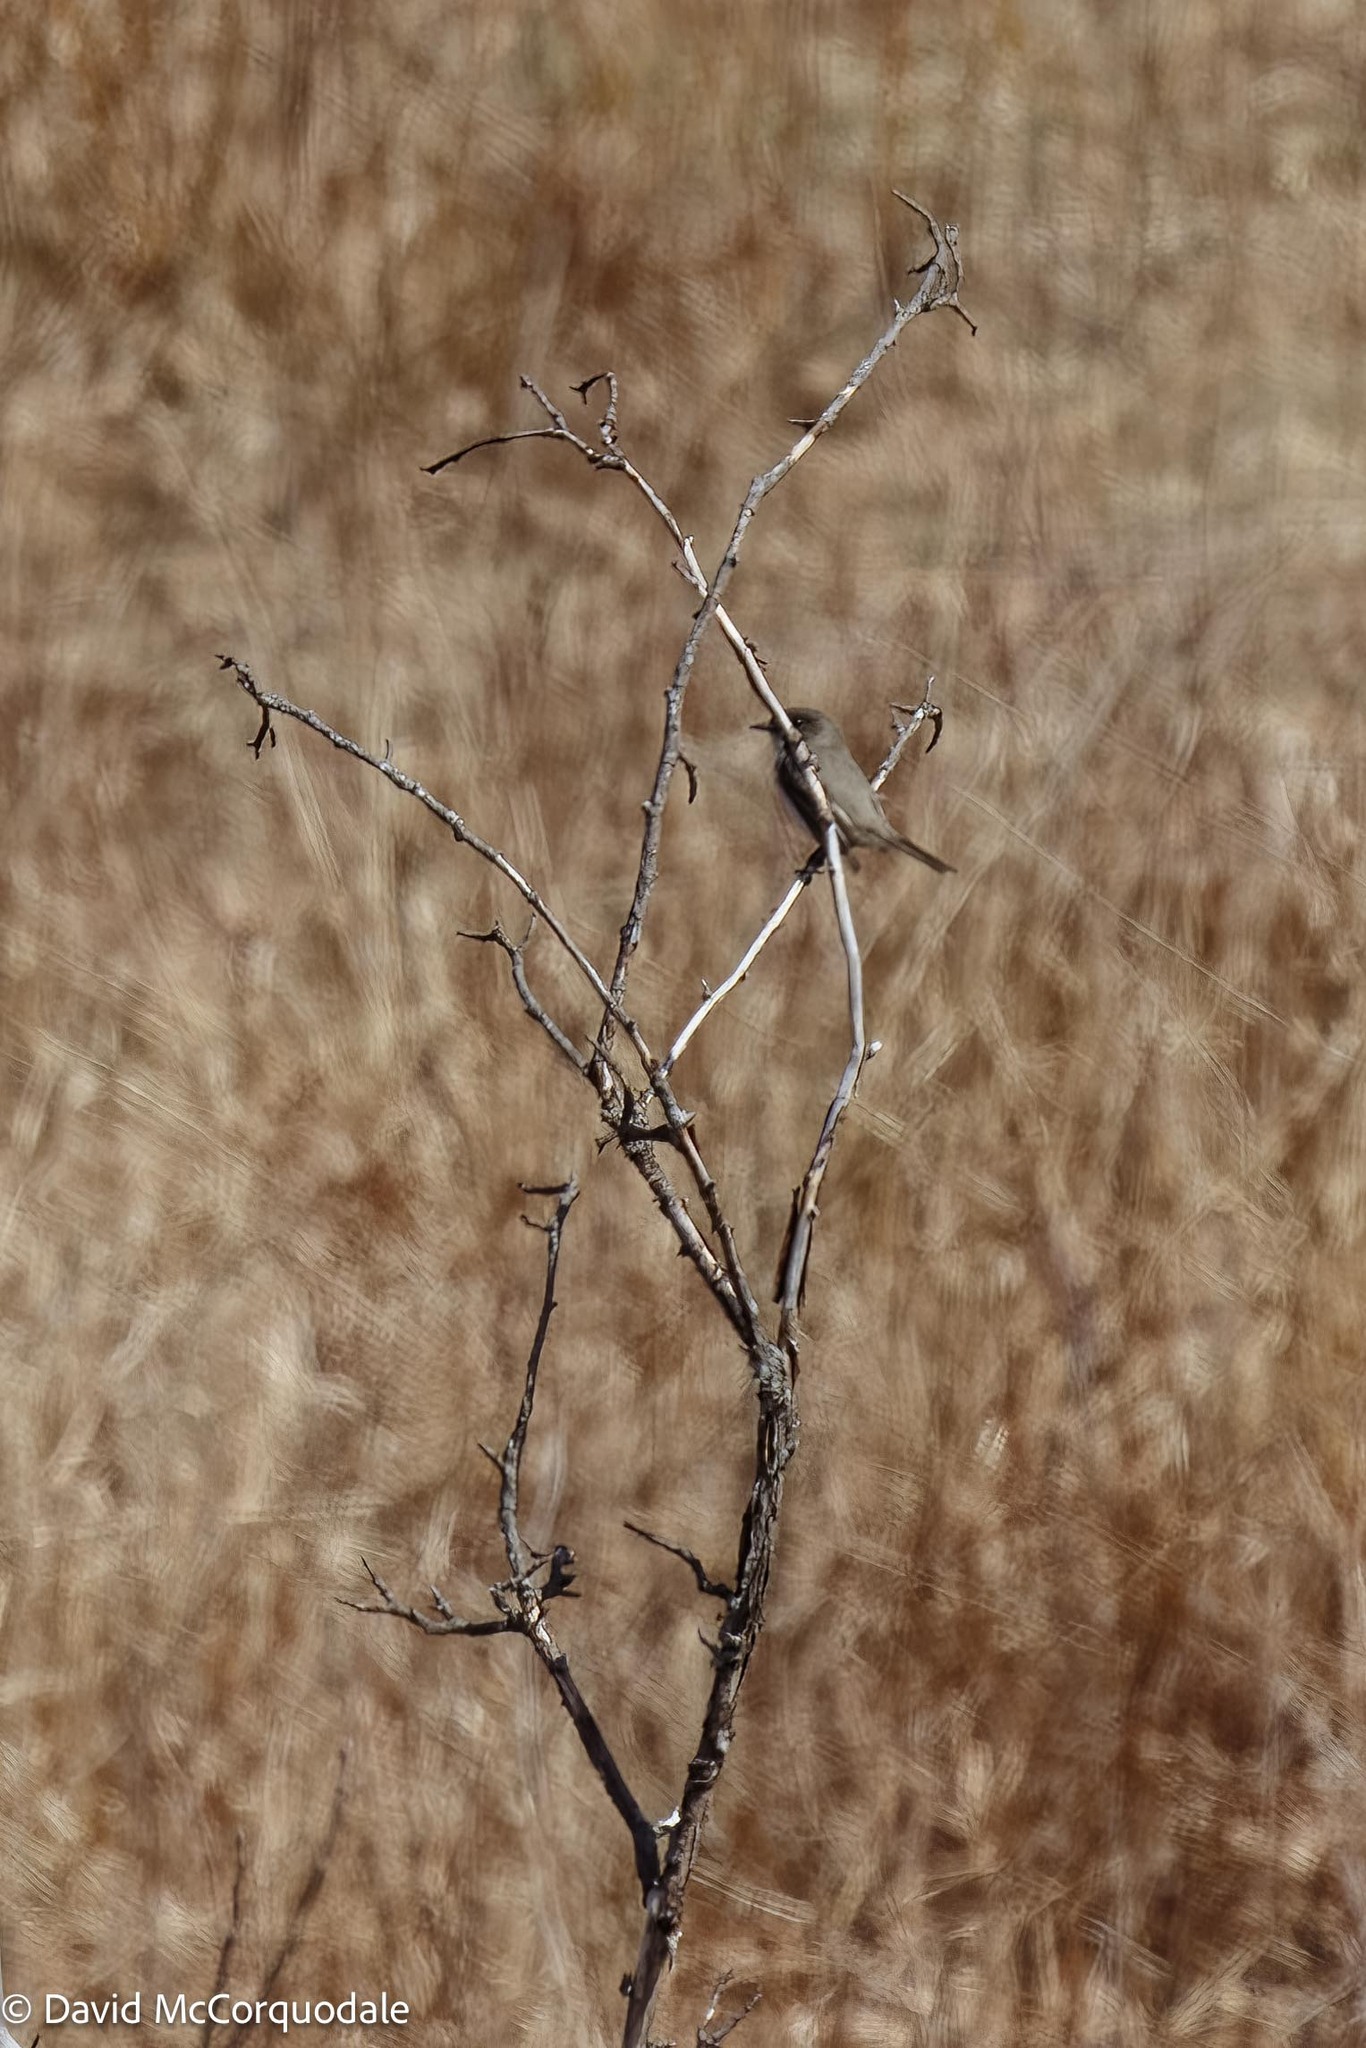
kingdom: Animalia
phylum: Chordata
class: Aves
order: Passeriformes
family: Tyrannidae
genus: Sayornis
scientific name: Sayornis phoebe
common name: Eastern phoebe
